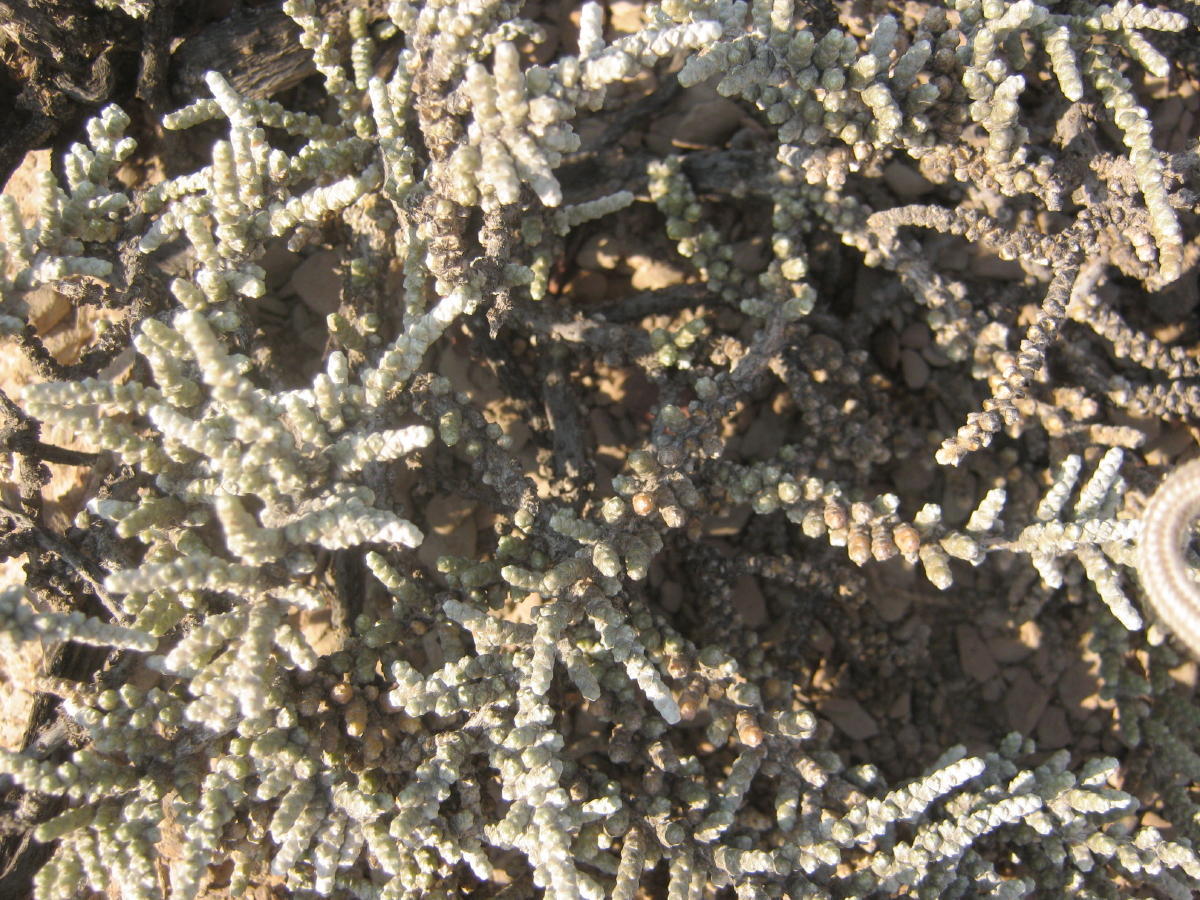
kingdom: Plantae
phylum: Tracheophyta
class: Magnoliopsida
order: Caryophyllales
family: Amaranthaceae
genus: Caroxylon
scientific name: Caroxylon tuberculatum
